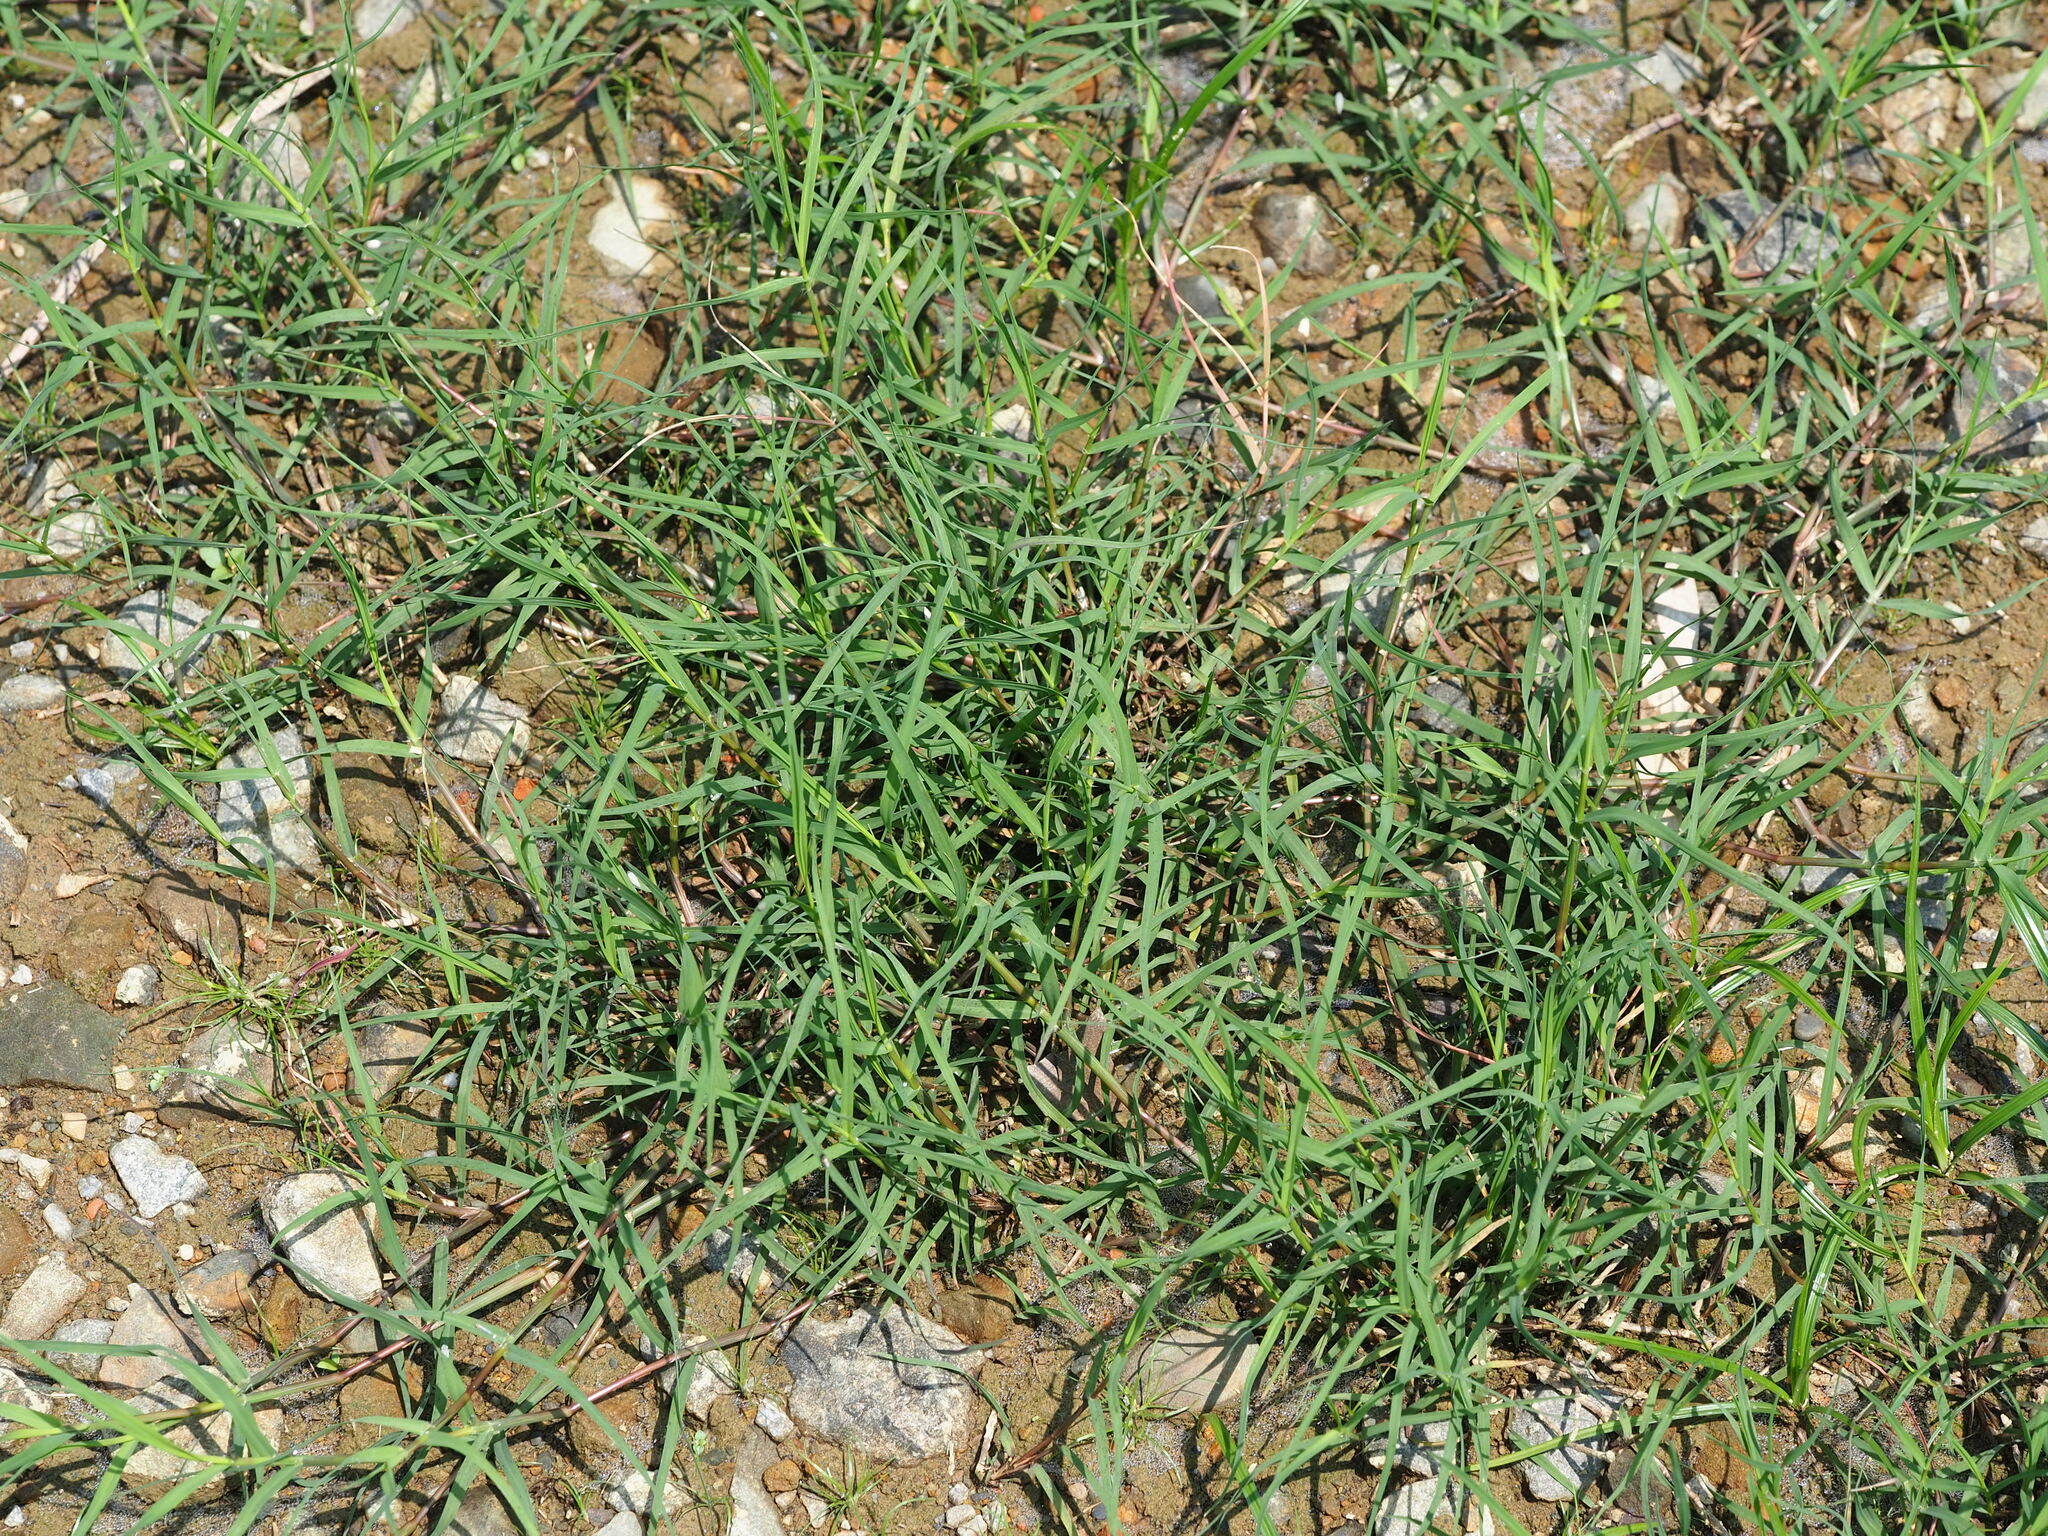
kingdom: Plantae
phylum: Tracheophyta
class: Liliopsida
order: Poales
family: Poaceae
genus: Cynodon
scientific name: Cynodon dactylon
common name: Bermuda grass
